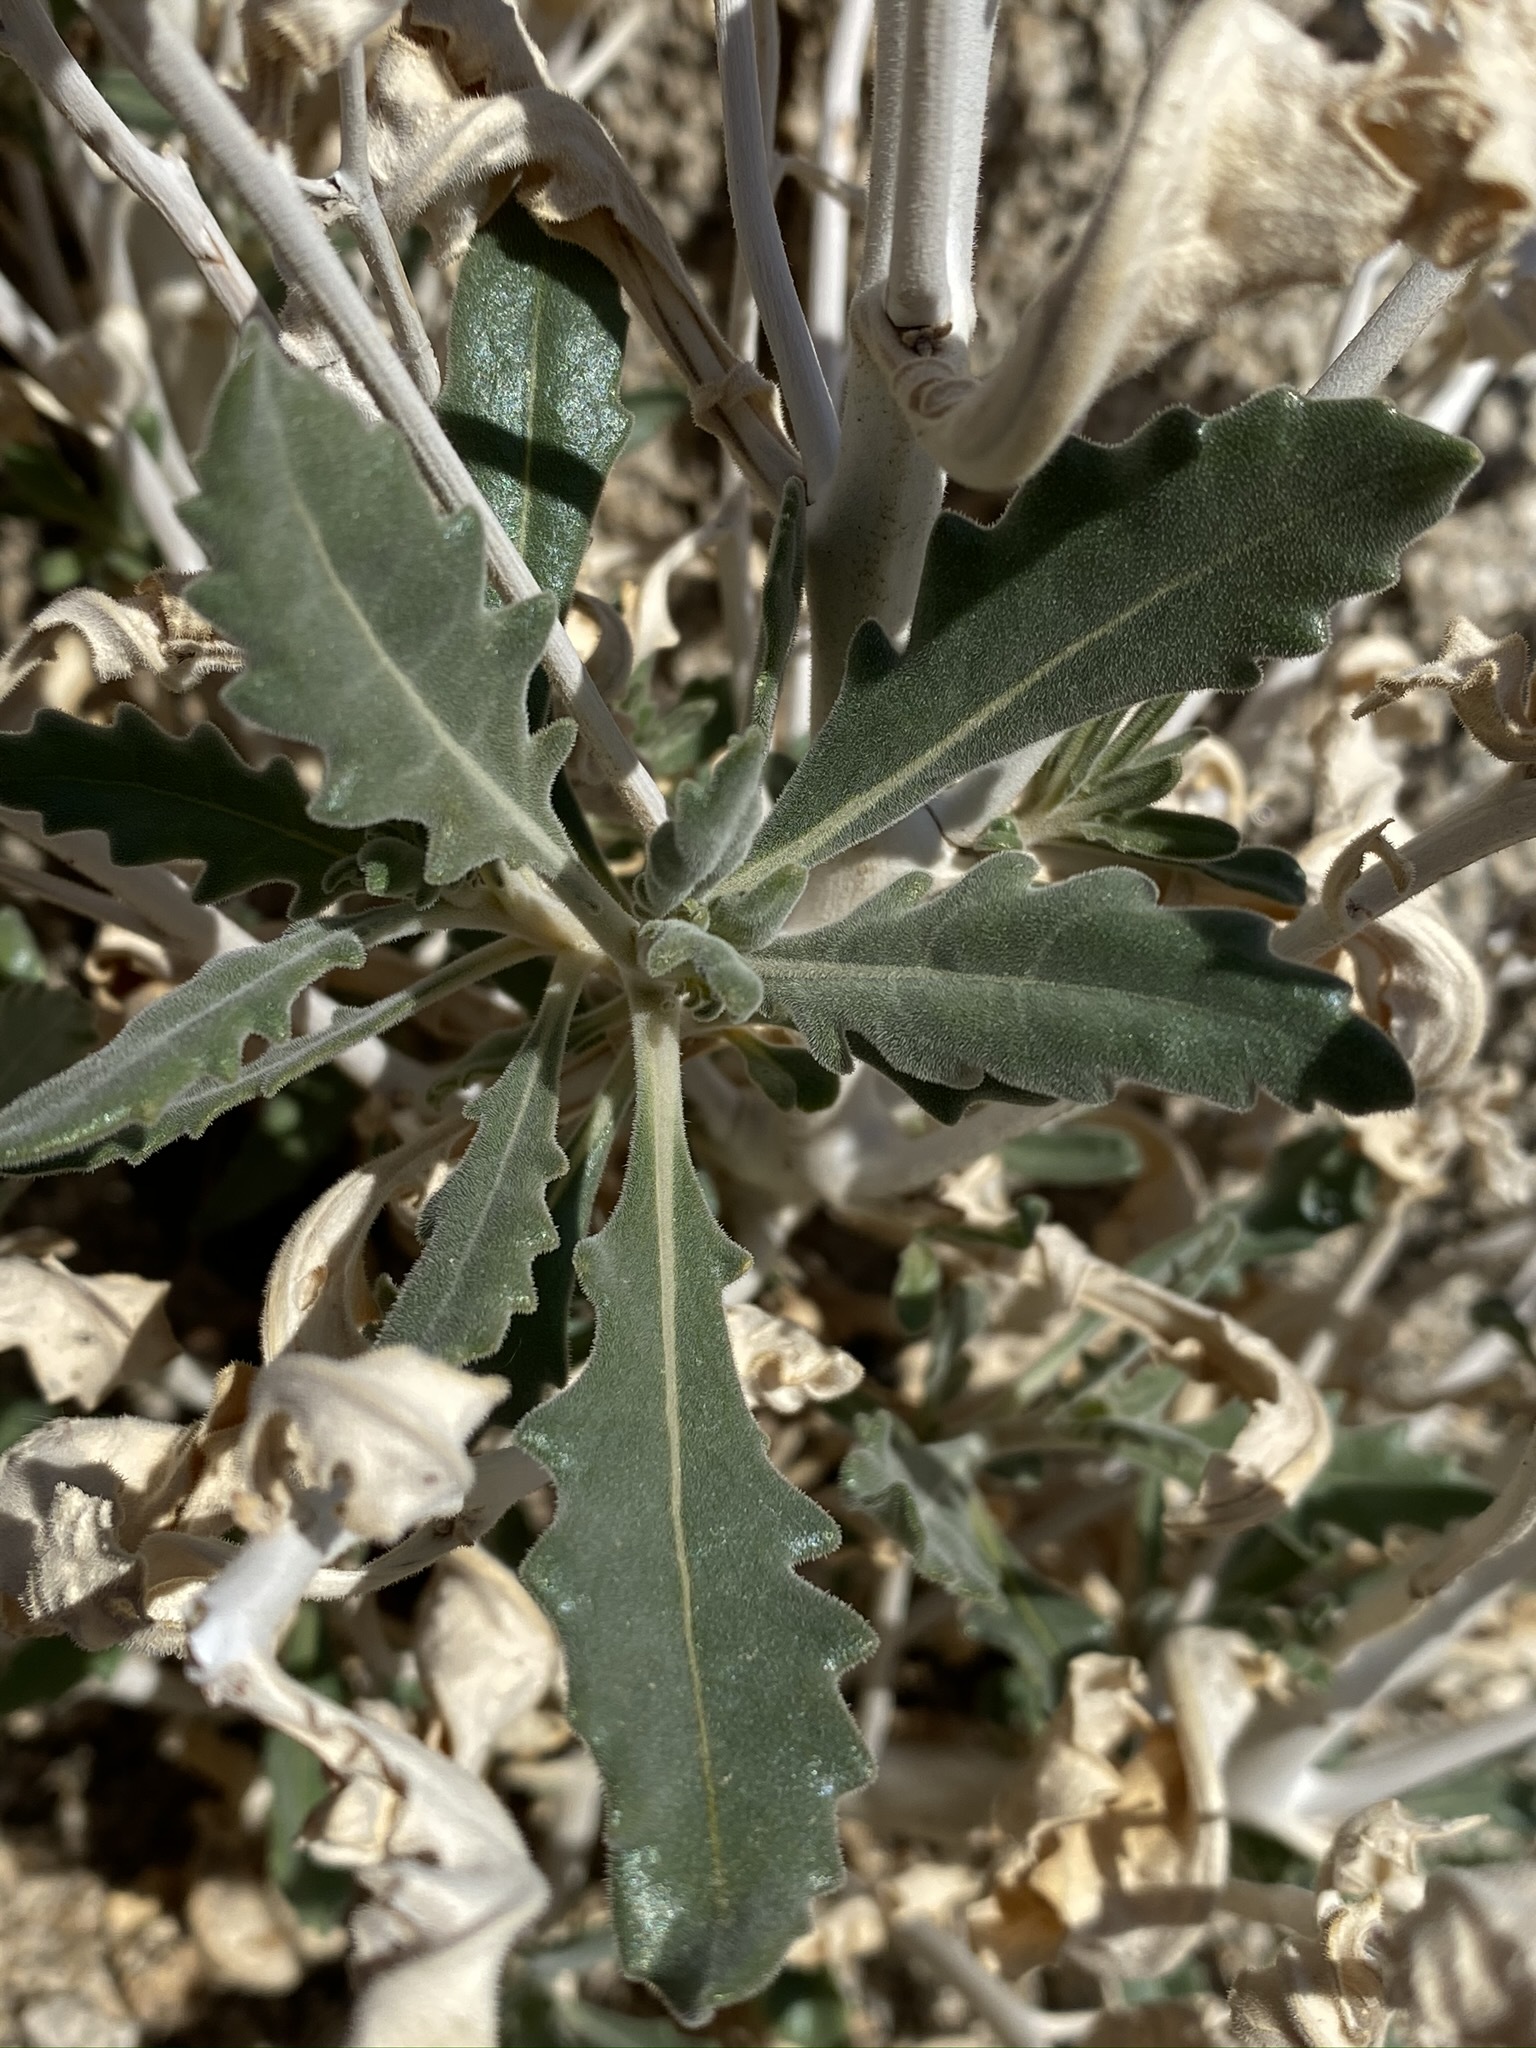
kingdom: Plantae
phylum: Tracheophyta
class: Magnoliopsida
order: Cornales
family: Loasaceae
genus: Mentzelia
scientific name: Mentzelia puberula
